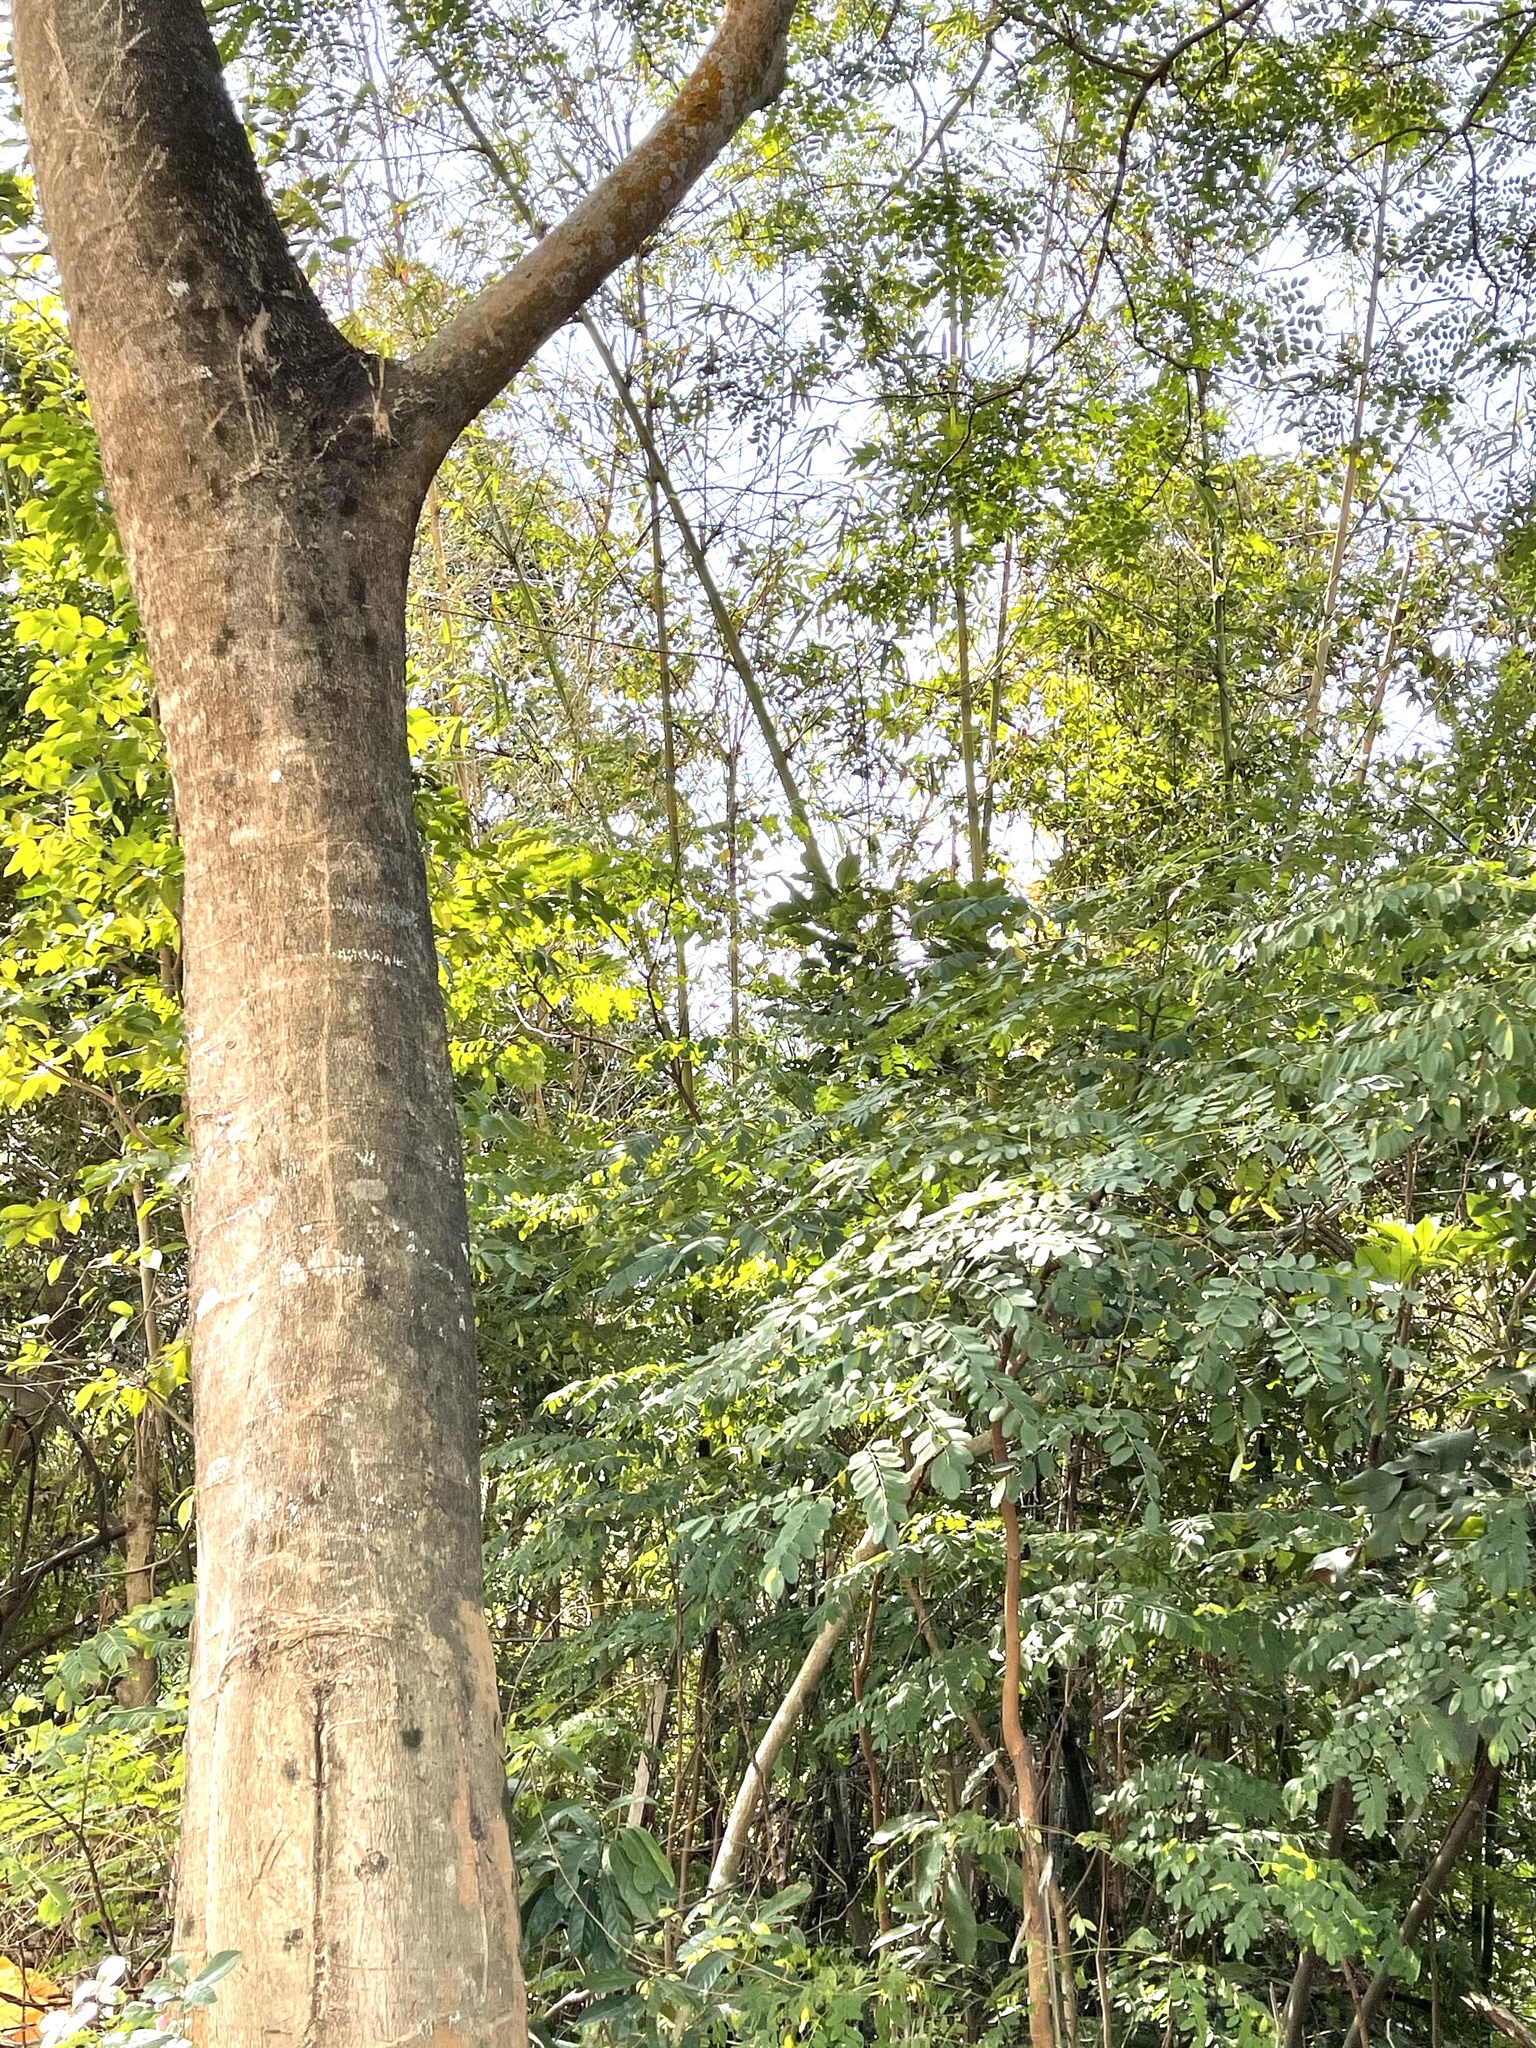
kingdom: Plantae
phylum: Tracheophyta
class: Magnoliopsida
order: Fabales
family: Fabaceae
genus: Adenanthera
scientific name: Adenanthera microsperma
